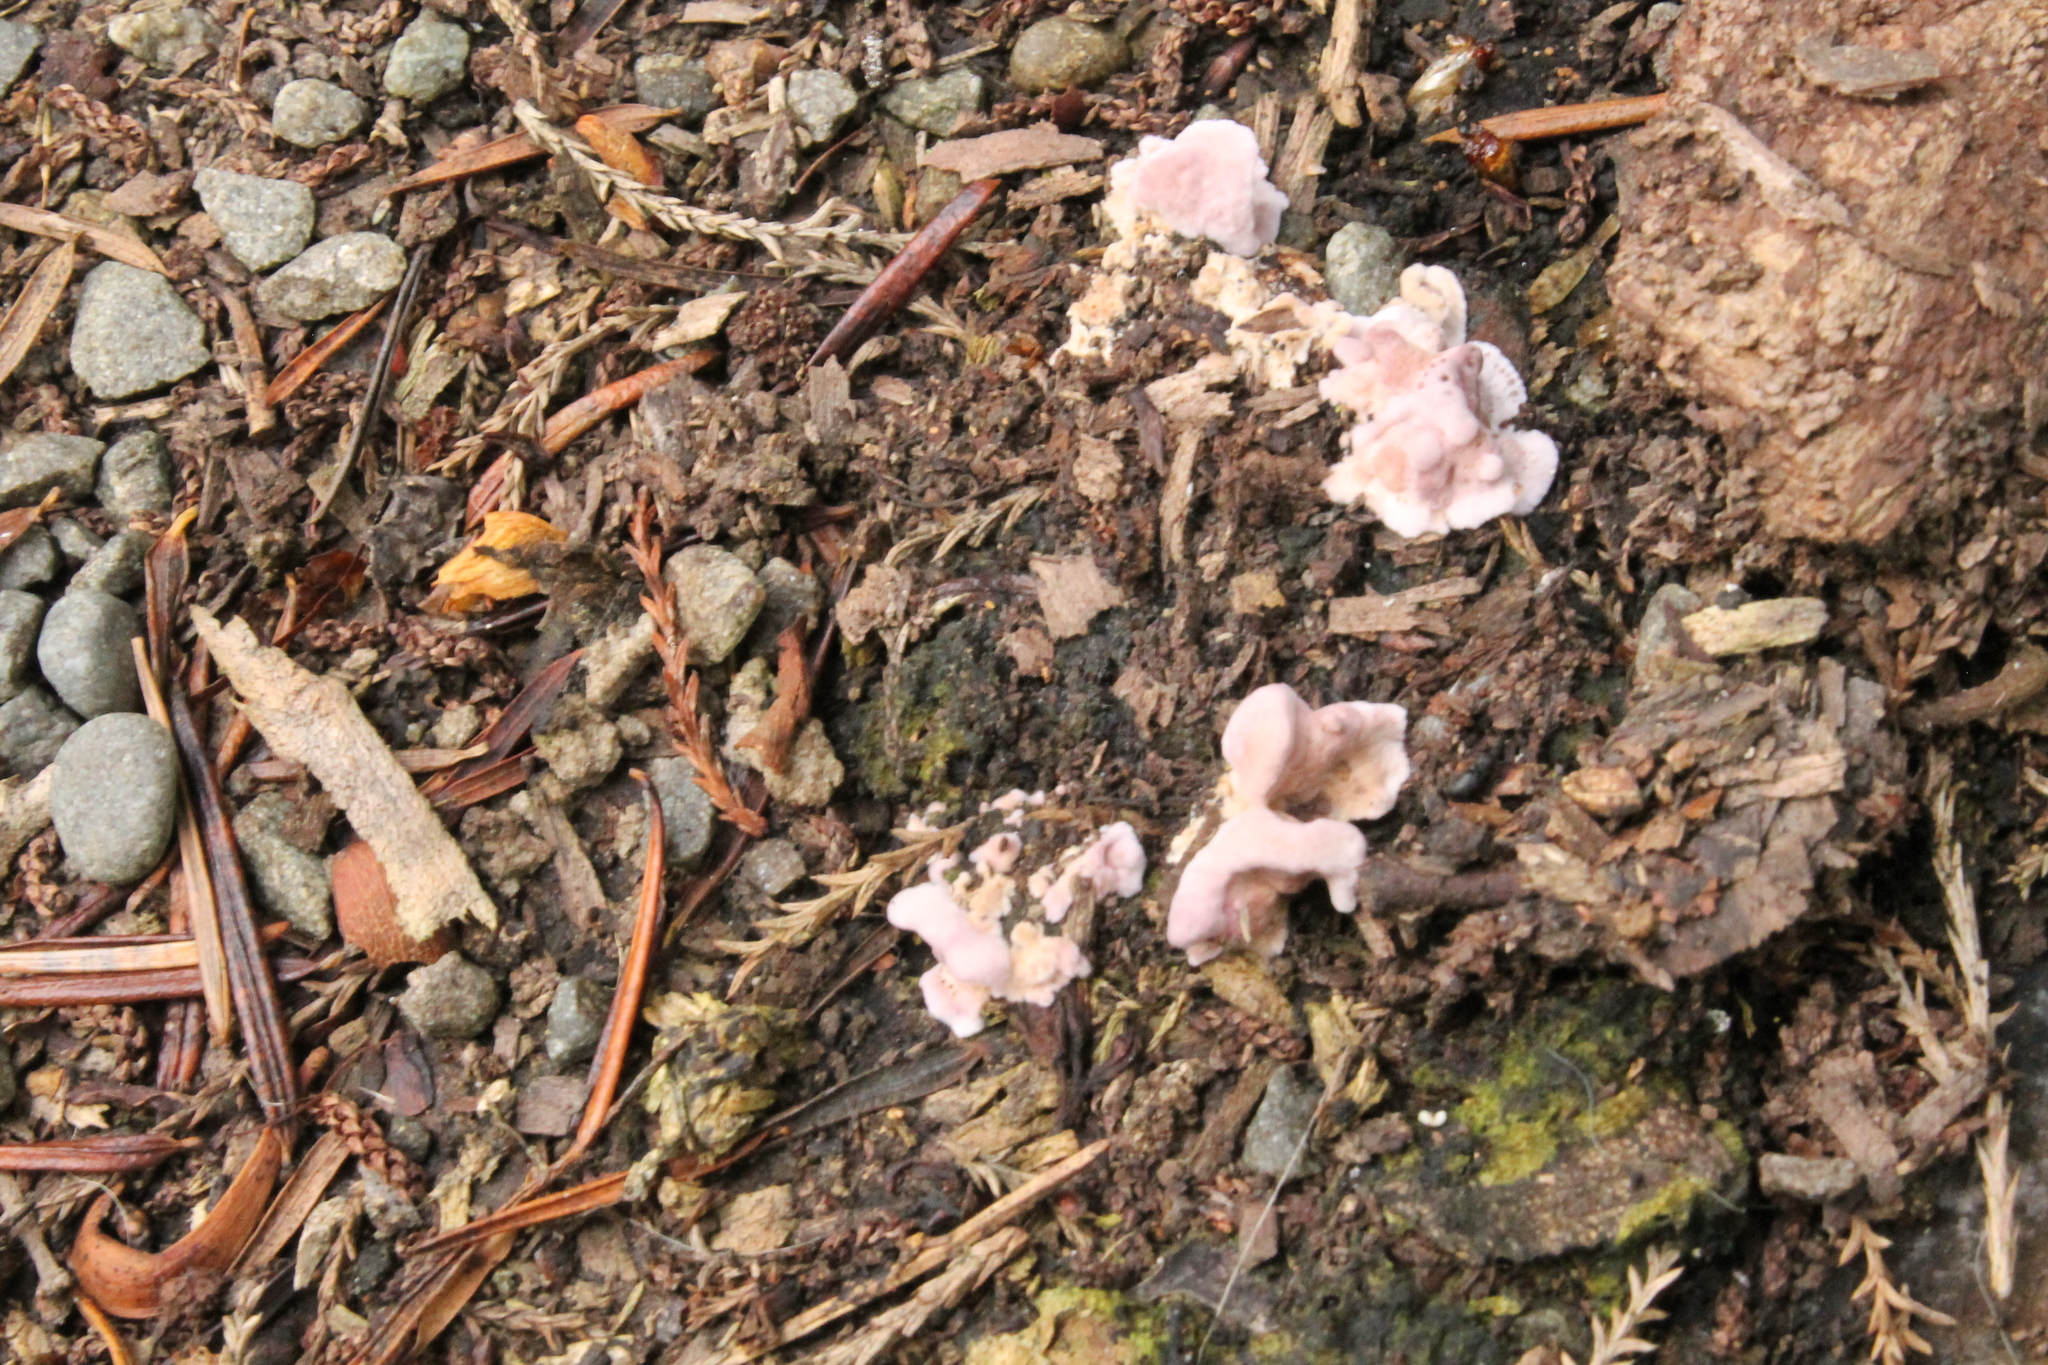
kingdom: Fungi
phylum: Basidiomycota
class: Agaricomycetes
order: Agaricales
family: Cyphellaceae
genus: Chondrostereum
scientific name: Chondrostereum purpureum
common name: Silver leaf disease
